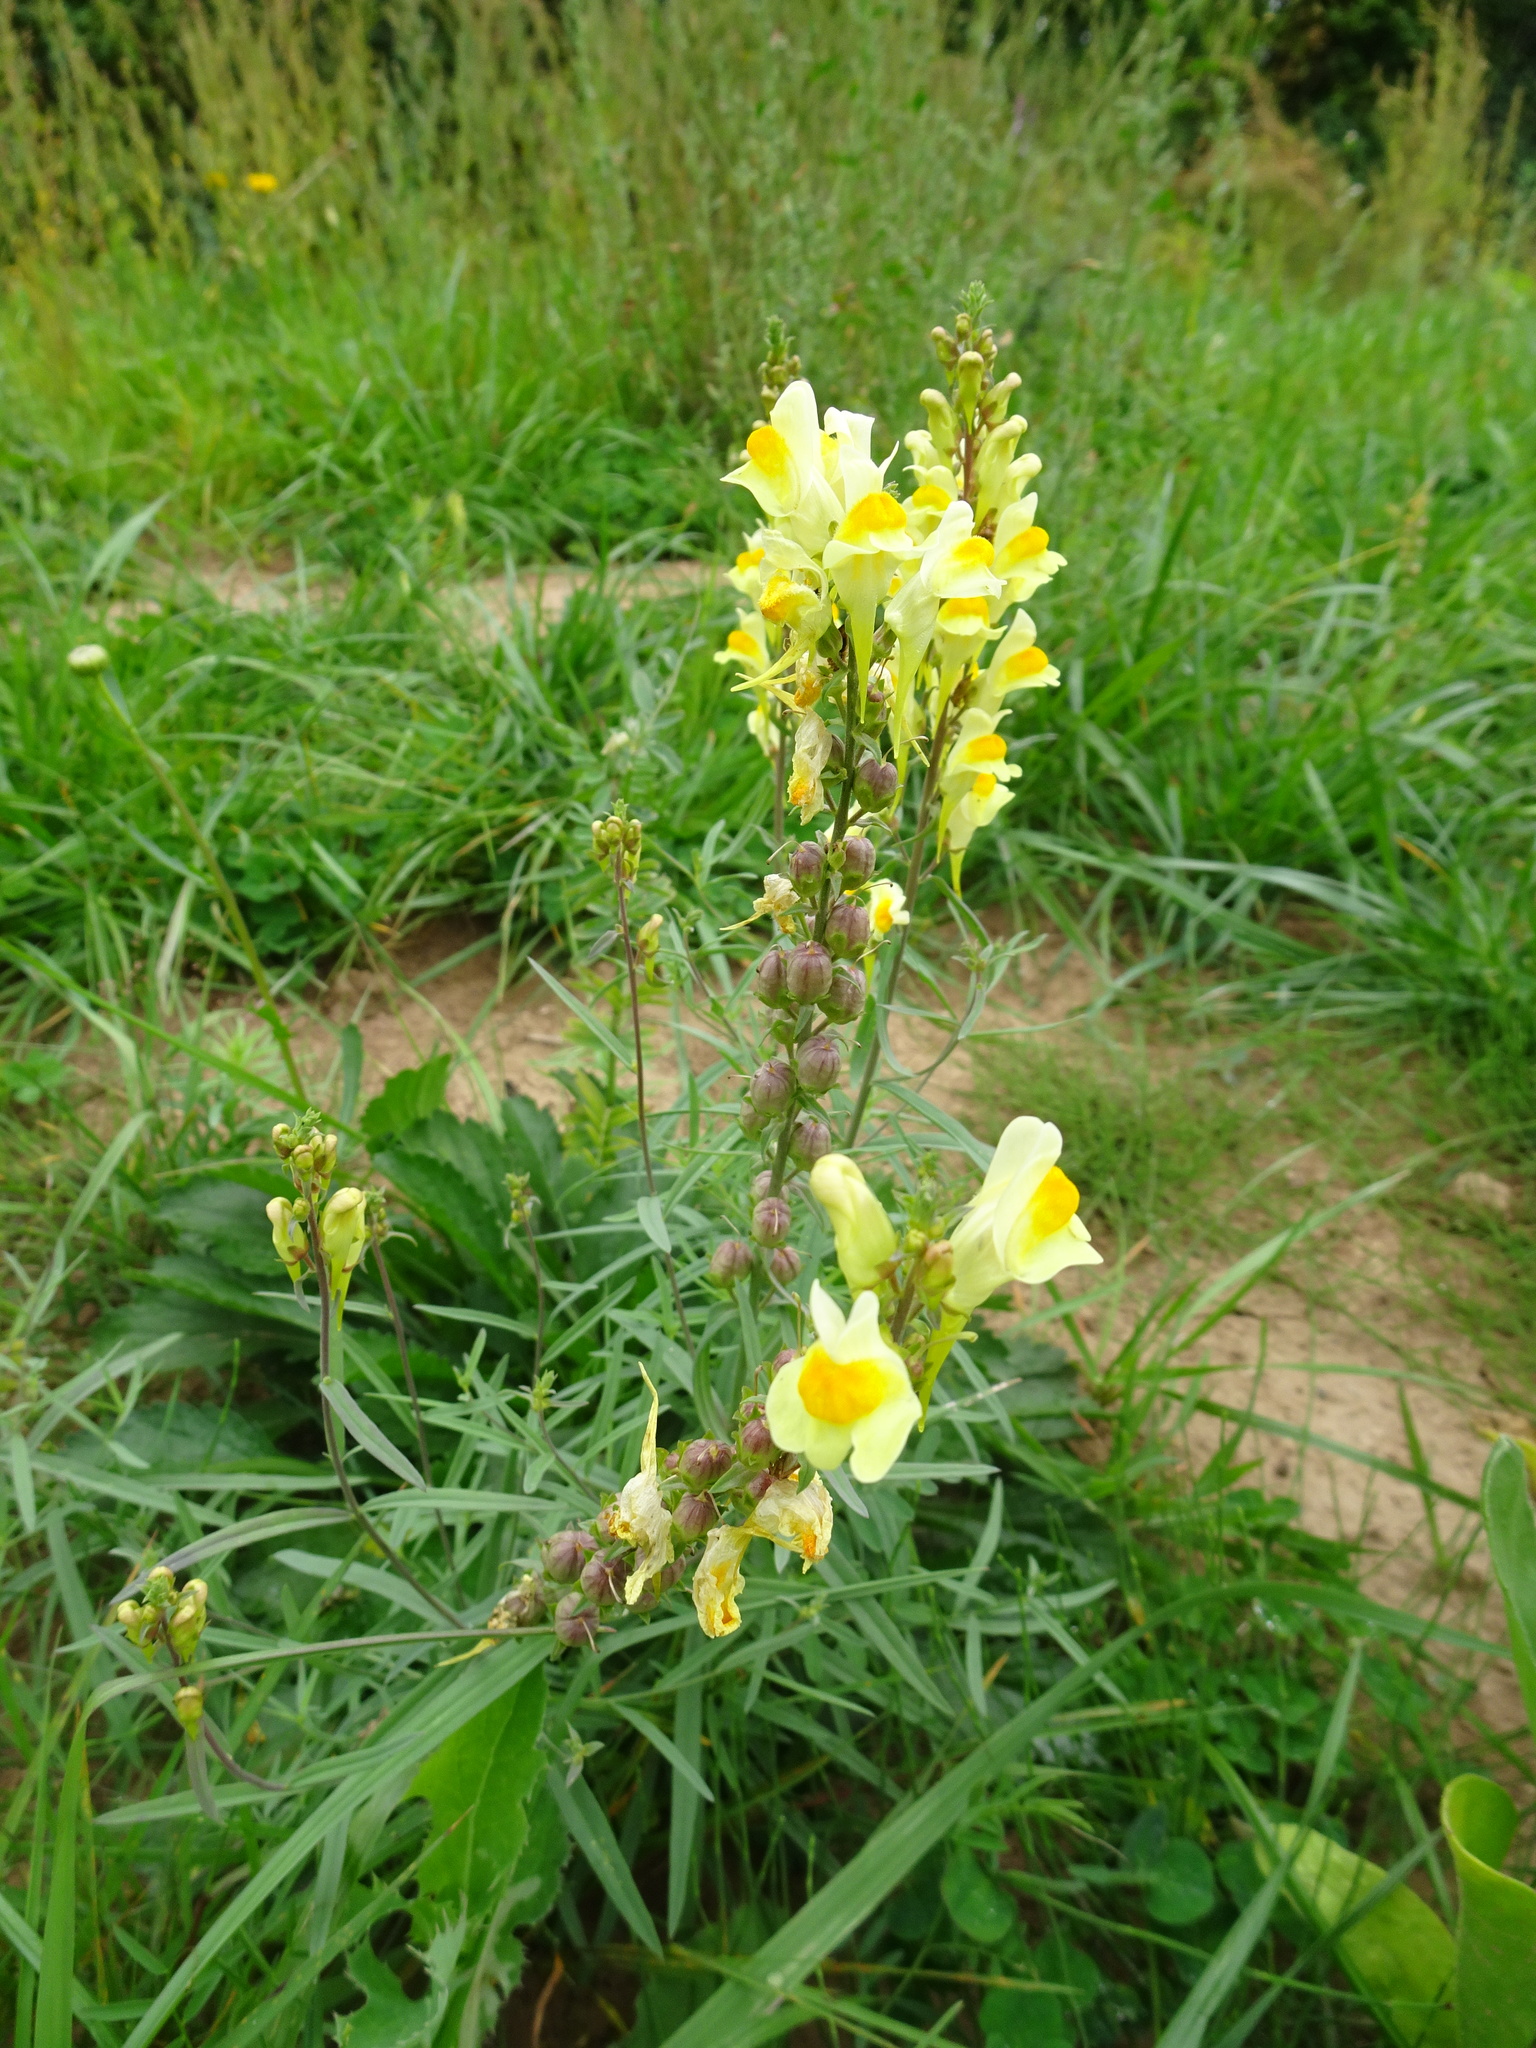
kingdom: Plantae
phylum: Tracheophyta
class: Magnoliopsida
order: Lamiales
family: Plantaginaceae
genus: Linaria
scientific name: Linaria vulgaris
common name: Butter and eggs
